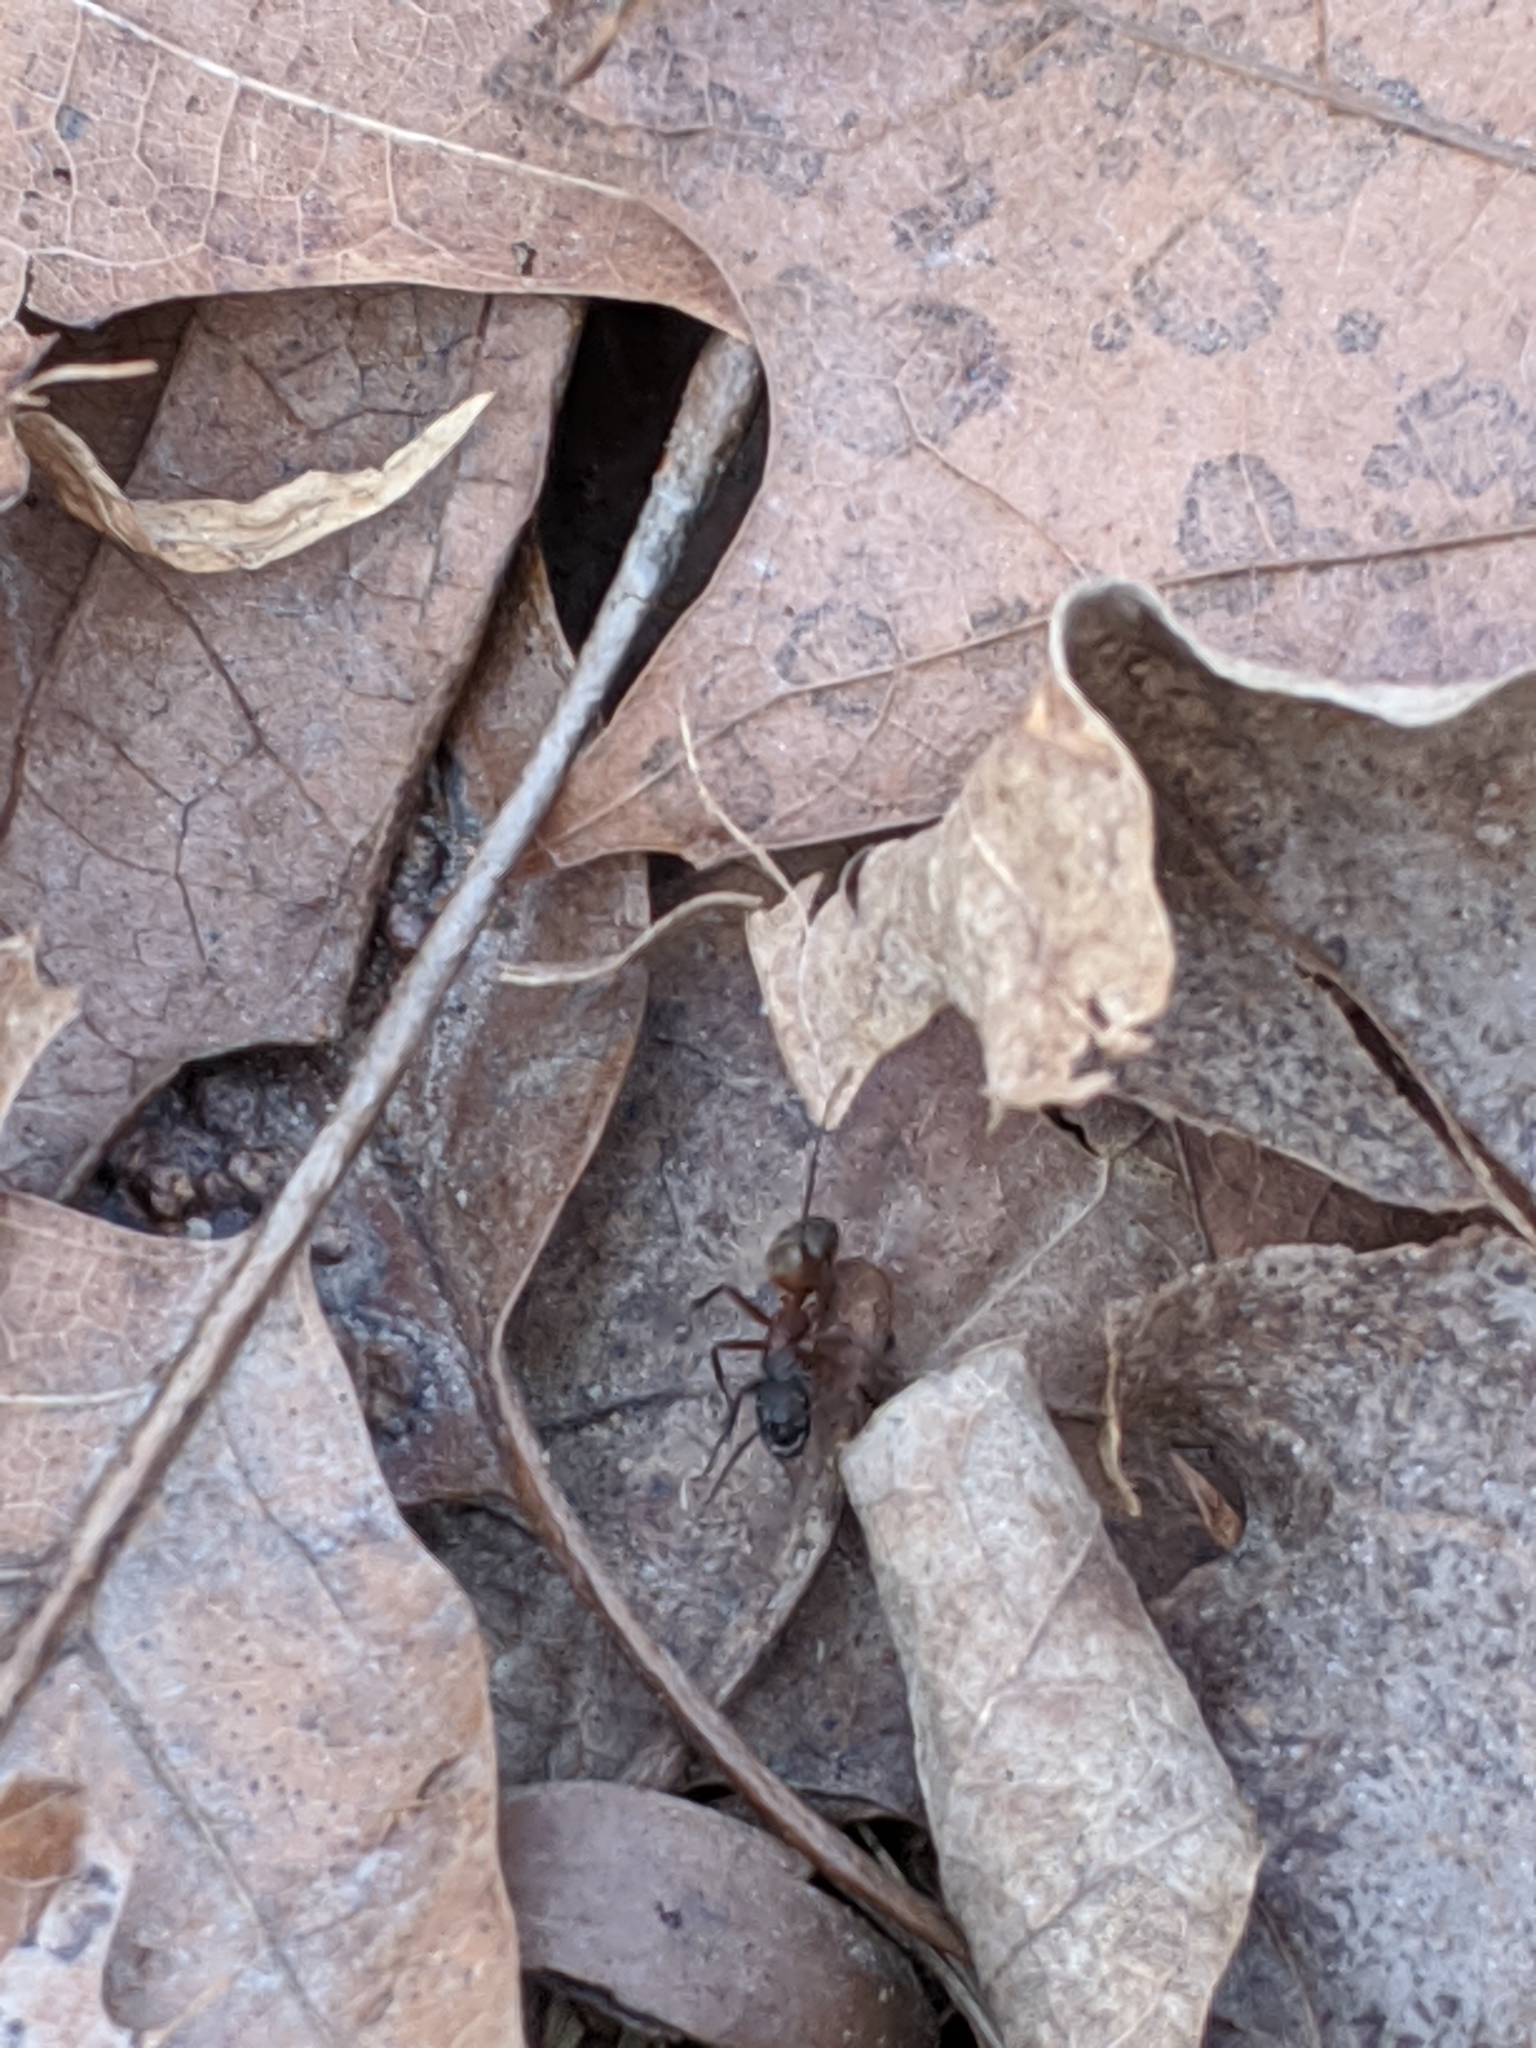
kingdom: Animalia
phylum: Arthropoda
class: Insecta
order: Hymenoptera
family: Formicidae
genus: Camponotus
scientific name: Camponotus chromaiodes
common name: Red carpenter ant
